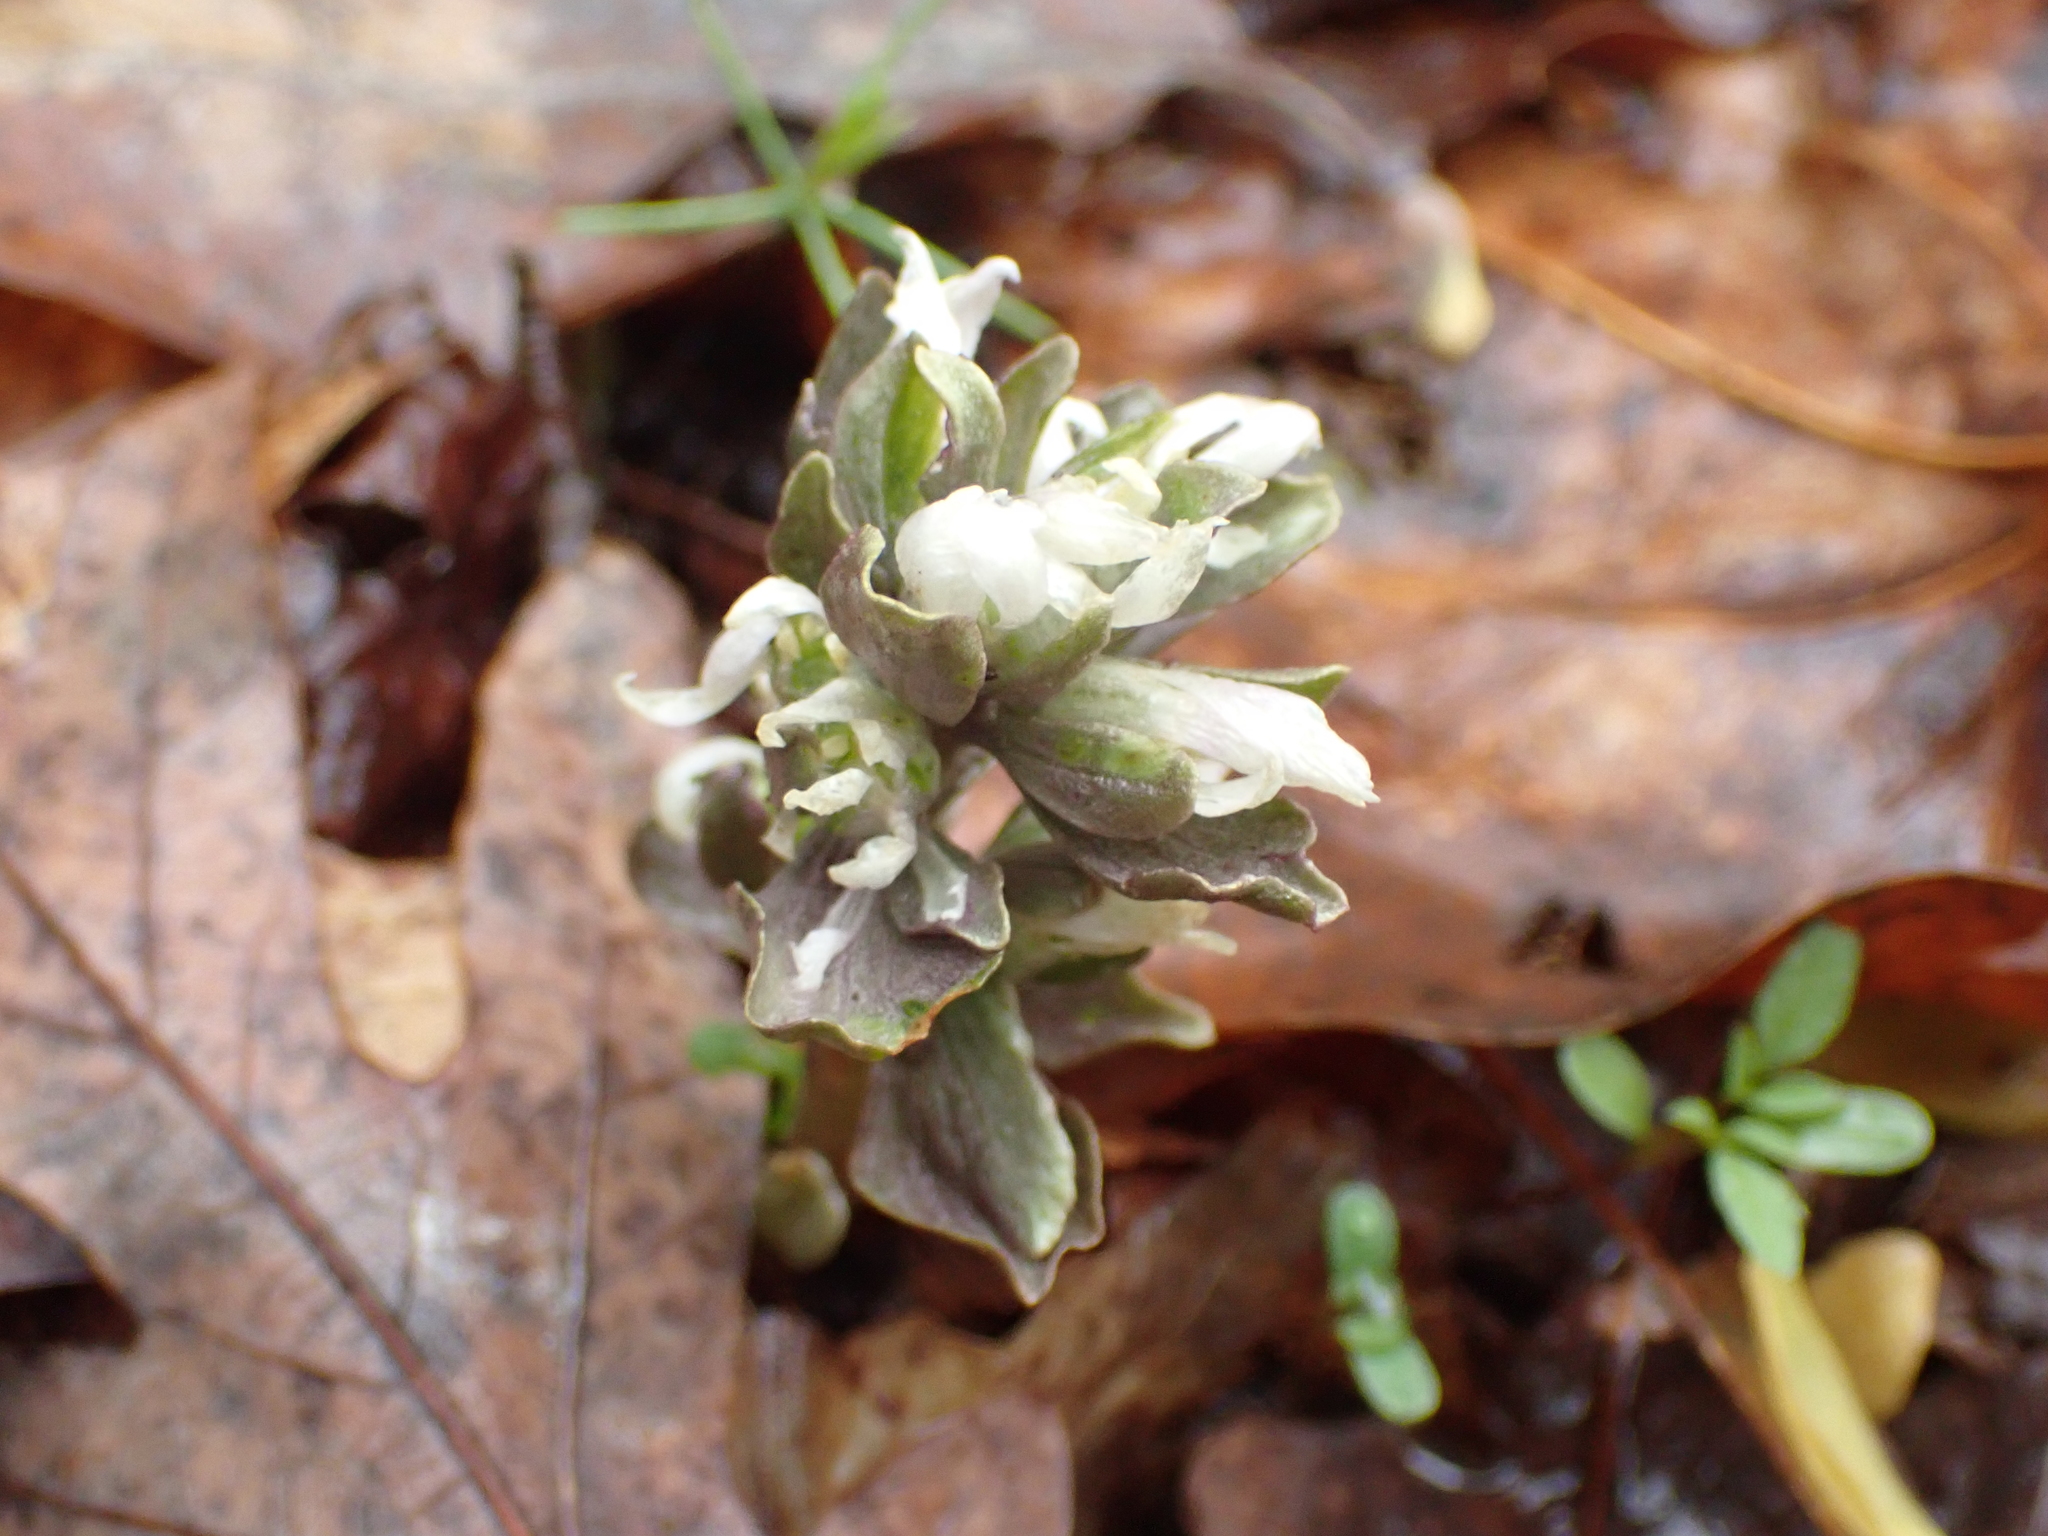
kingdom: Plantae
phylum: Tracheophyta
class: Magnoliopsida
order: Gentianales
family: Gentianaceae
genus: Obolaria
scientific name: Obolaria virginica
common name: Pennywort
